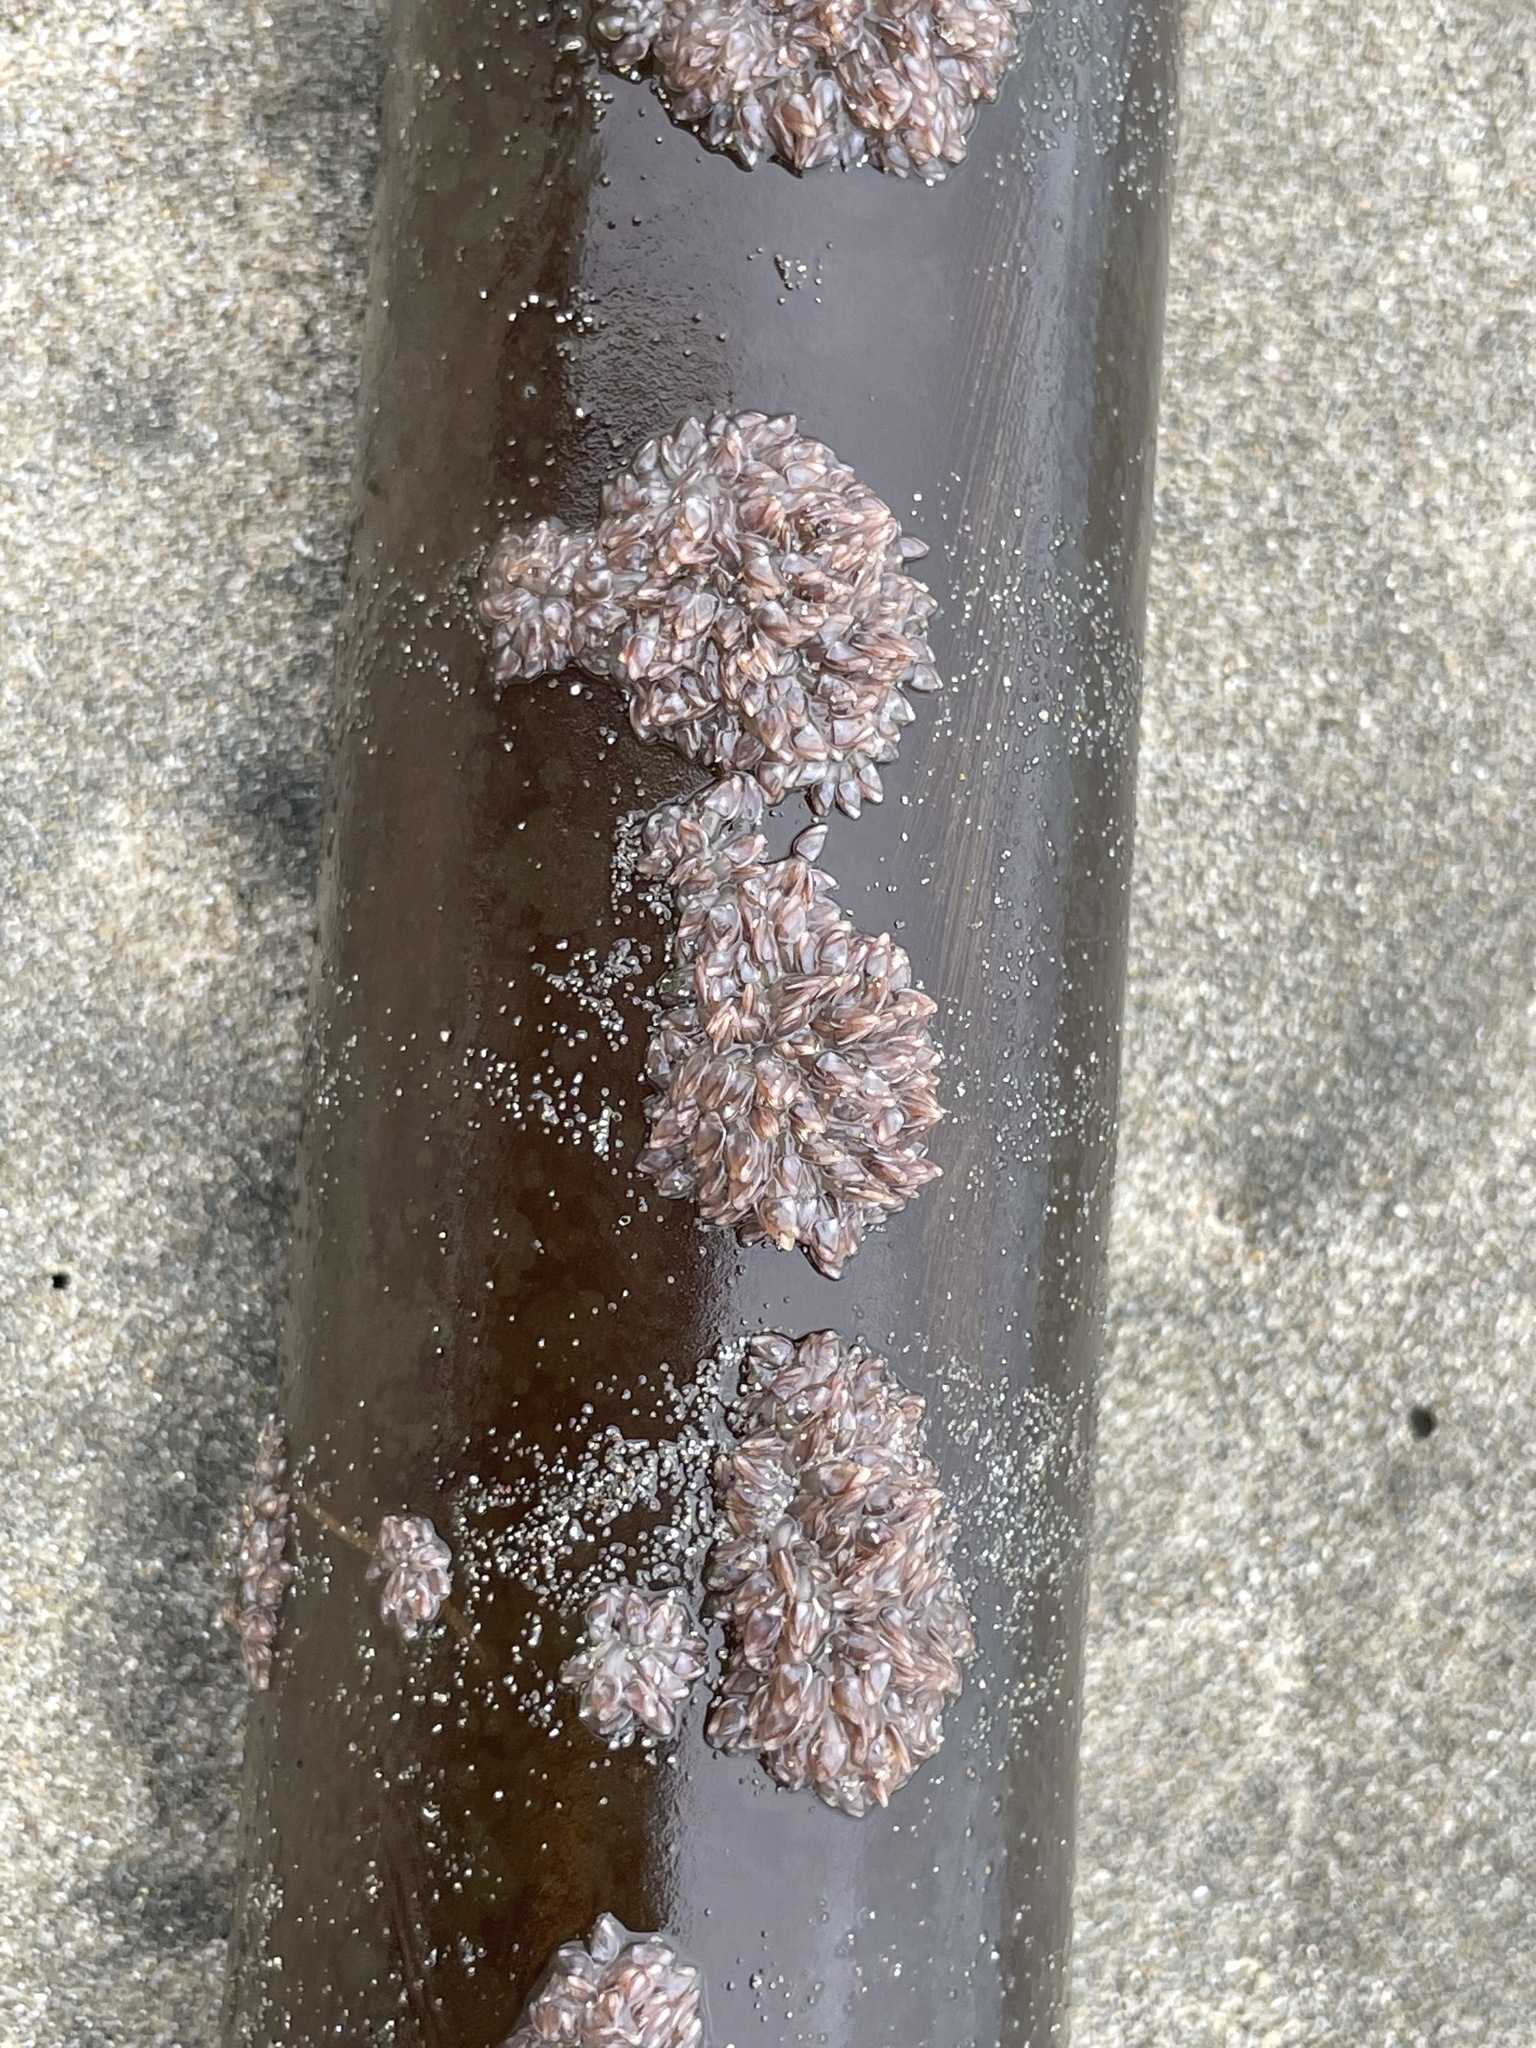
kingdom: Animalia
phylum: Arthropoda
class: Maxillopoda
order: Pedunculata
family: Lepadidae
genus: Lepas
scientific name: Lepas pacifica
